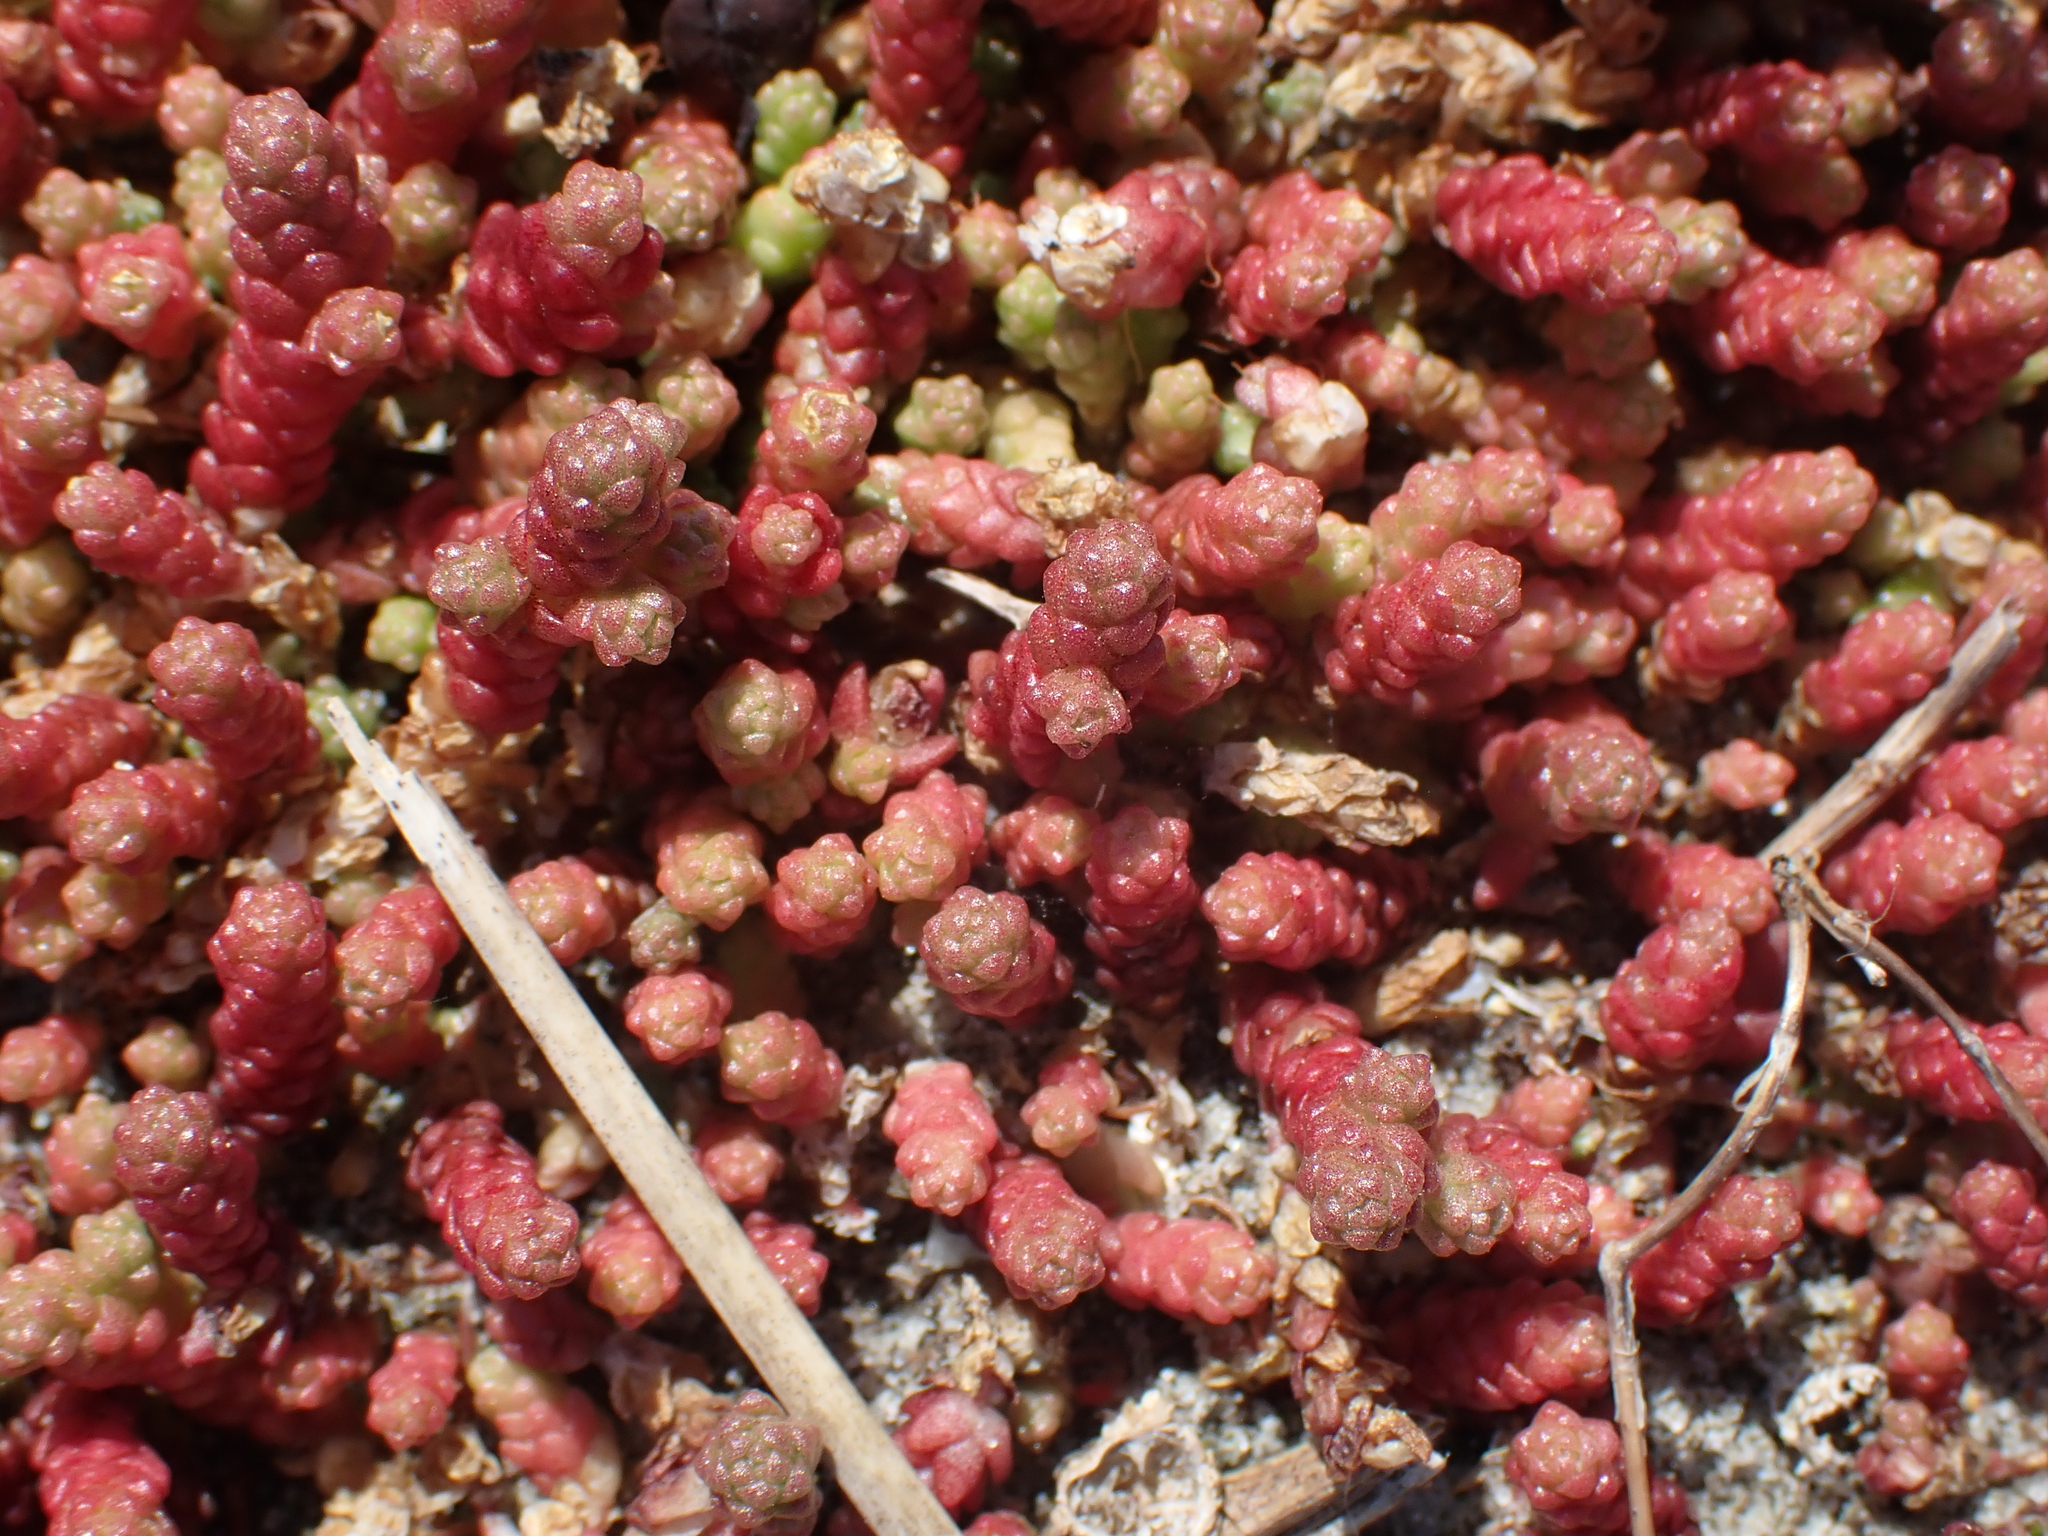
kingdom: Plantae
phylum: Tracheophyta
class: Magnoliopsida
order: Saxifragales
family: Crassulaceae
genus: Sedum
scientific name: Sedum acre
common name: Biting stonecrop
